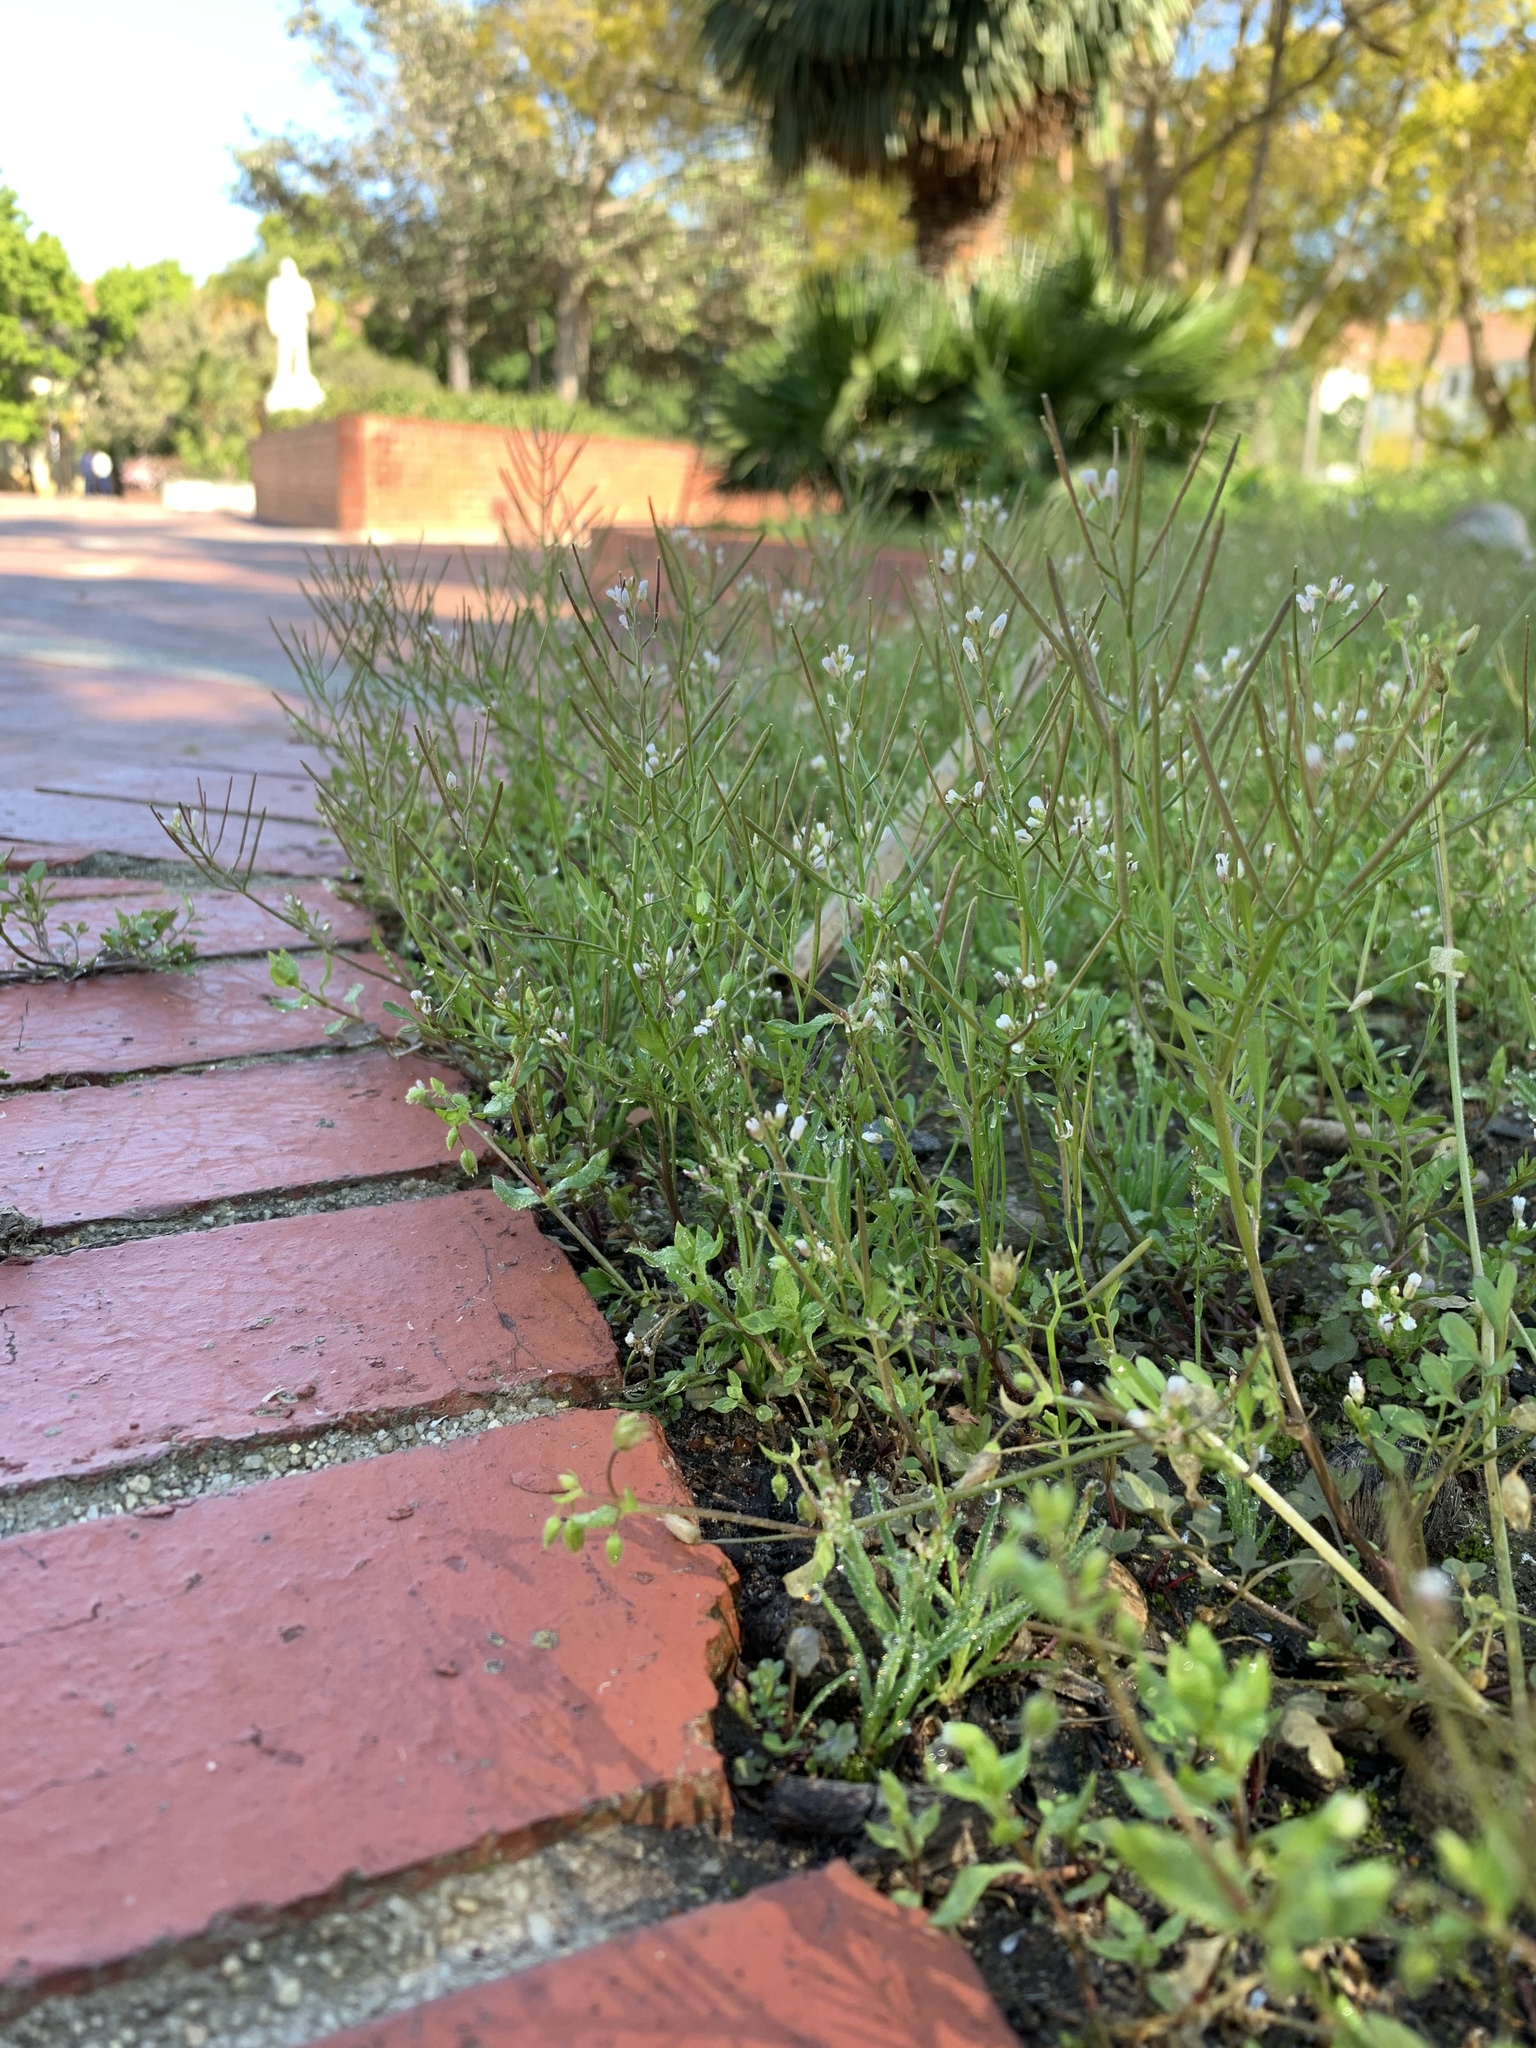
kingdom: Plantae
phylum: Tracheophyta
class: Magnoliopsida
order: Brassicales
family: Brassicaceae
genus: Cardamine
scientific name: Cardamine occulta
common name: Asian wavy bittercress
